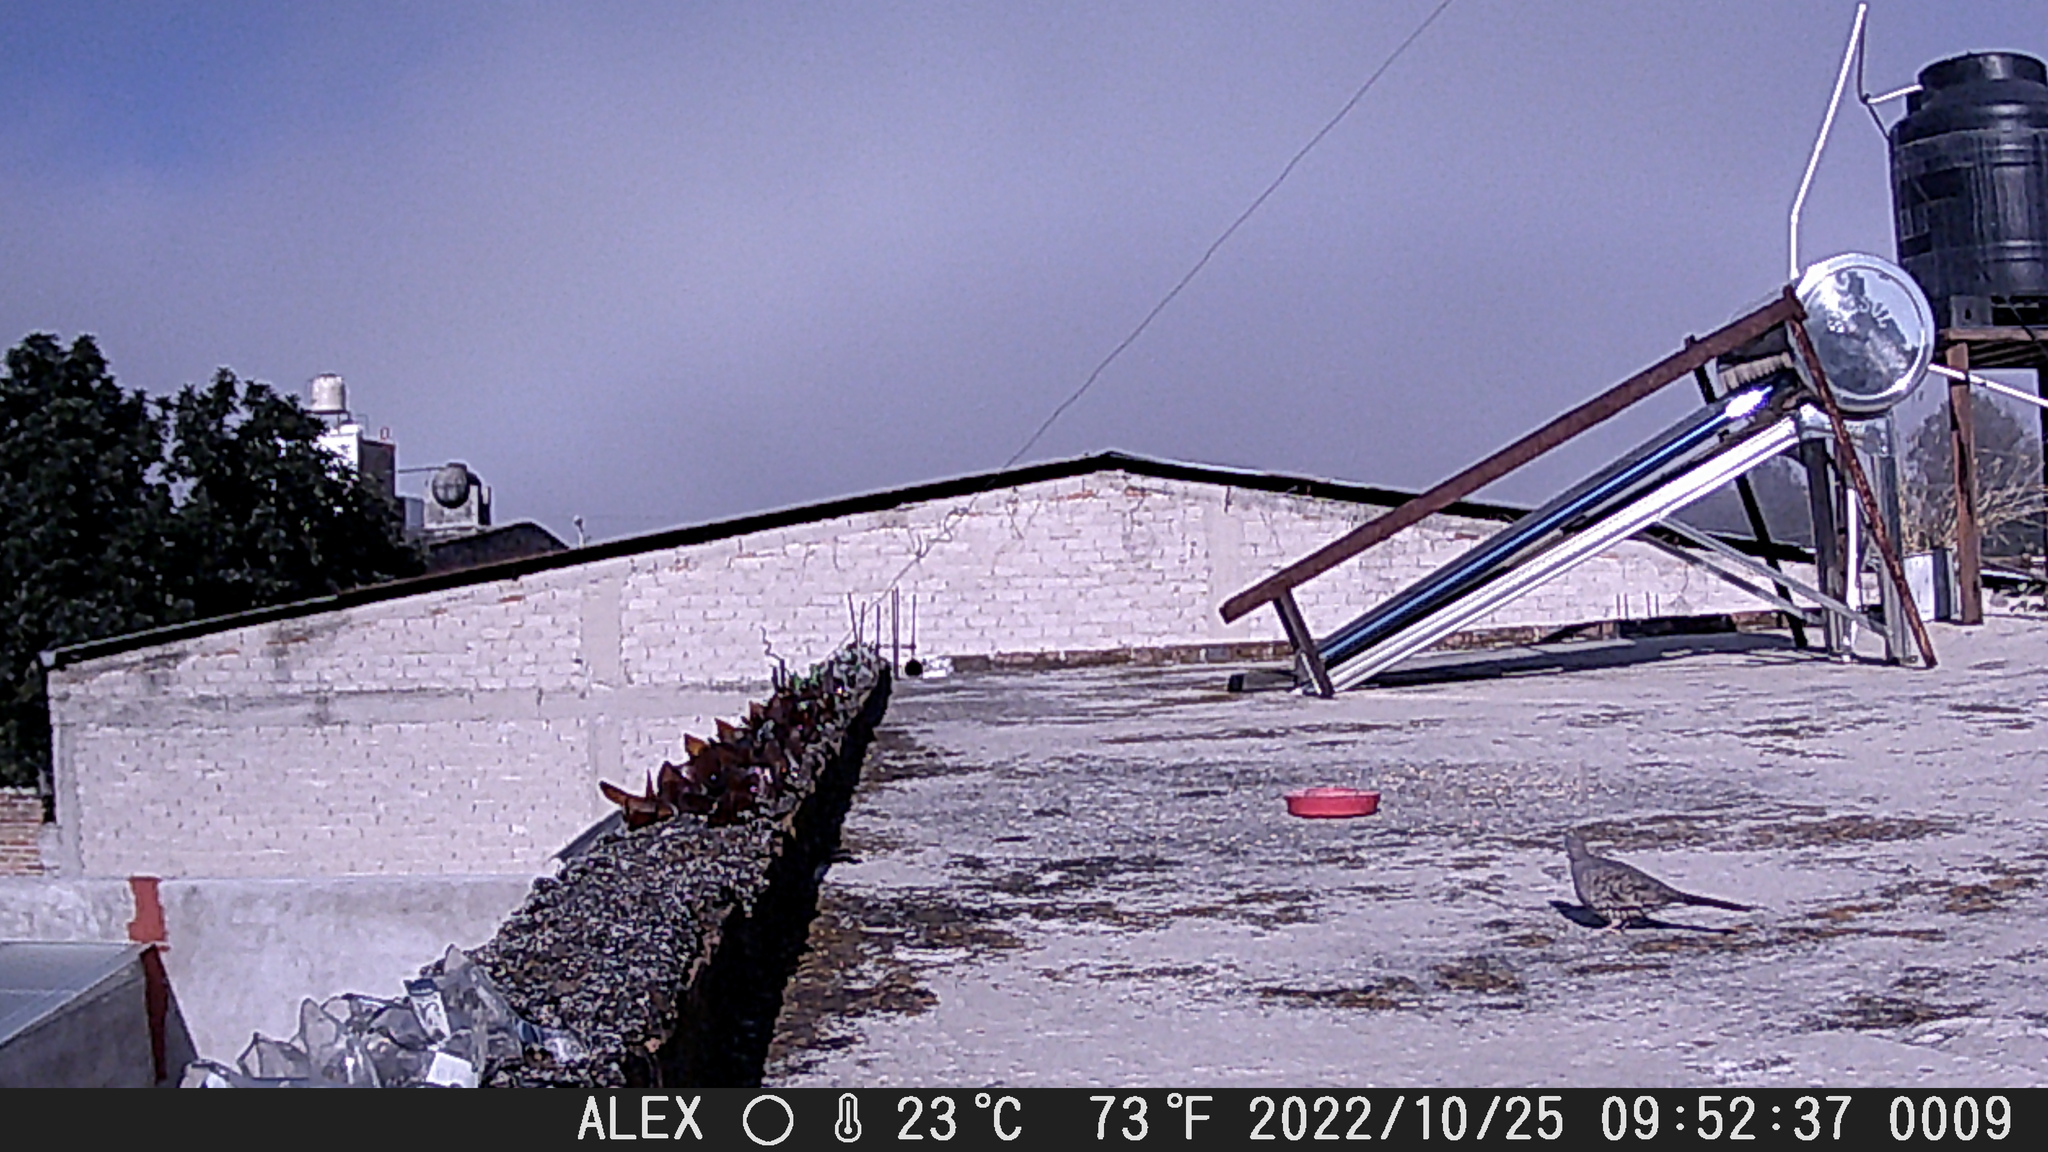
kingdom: Animalia
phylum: Chordata
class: Aves
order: Columbiformes
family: Columbidae
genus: Columbina
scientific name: Columbina inca
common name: Inca dove
